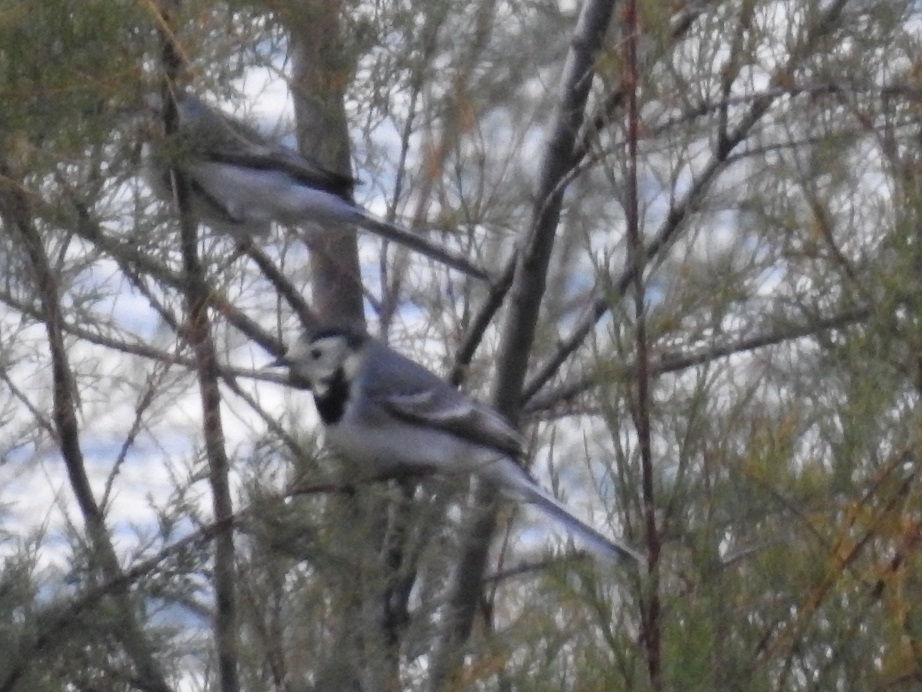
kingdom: Animalia
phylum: Chordata
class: Aves
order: Passeriformes
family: Motacillidae
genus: Motacilla
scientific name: Motacilla alba
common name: White wagtail
